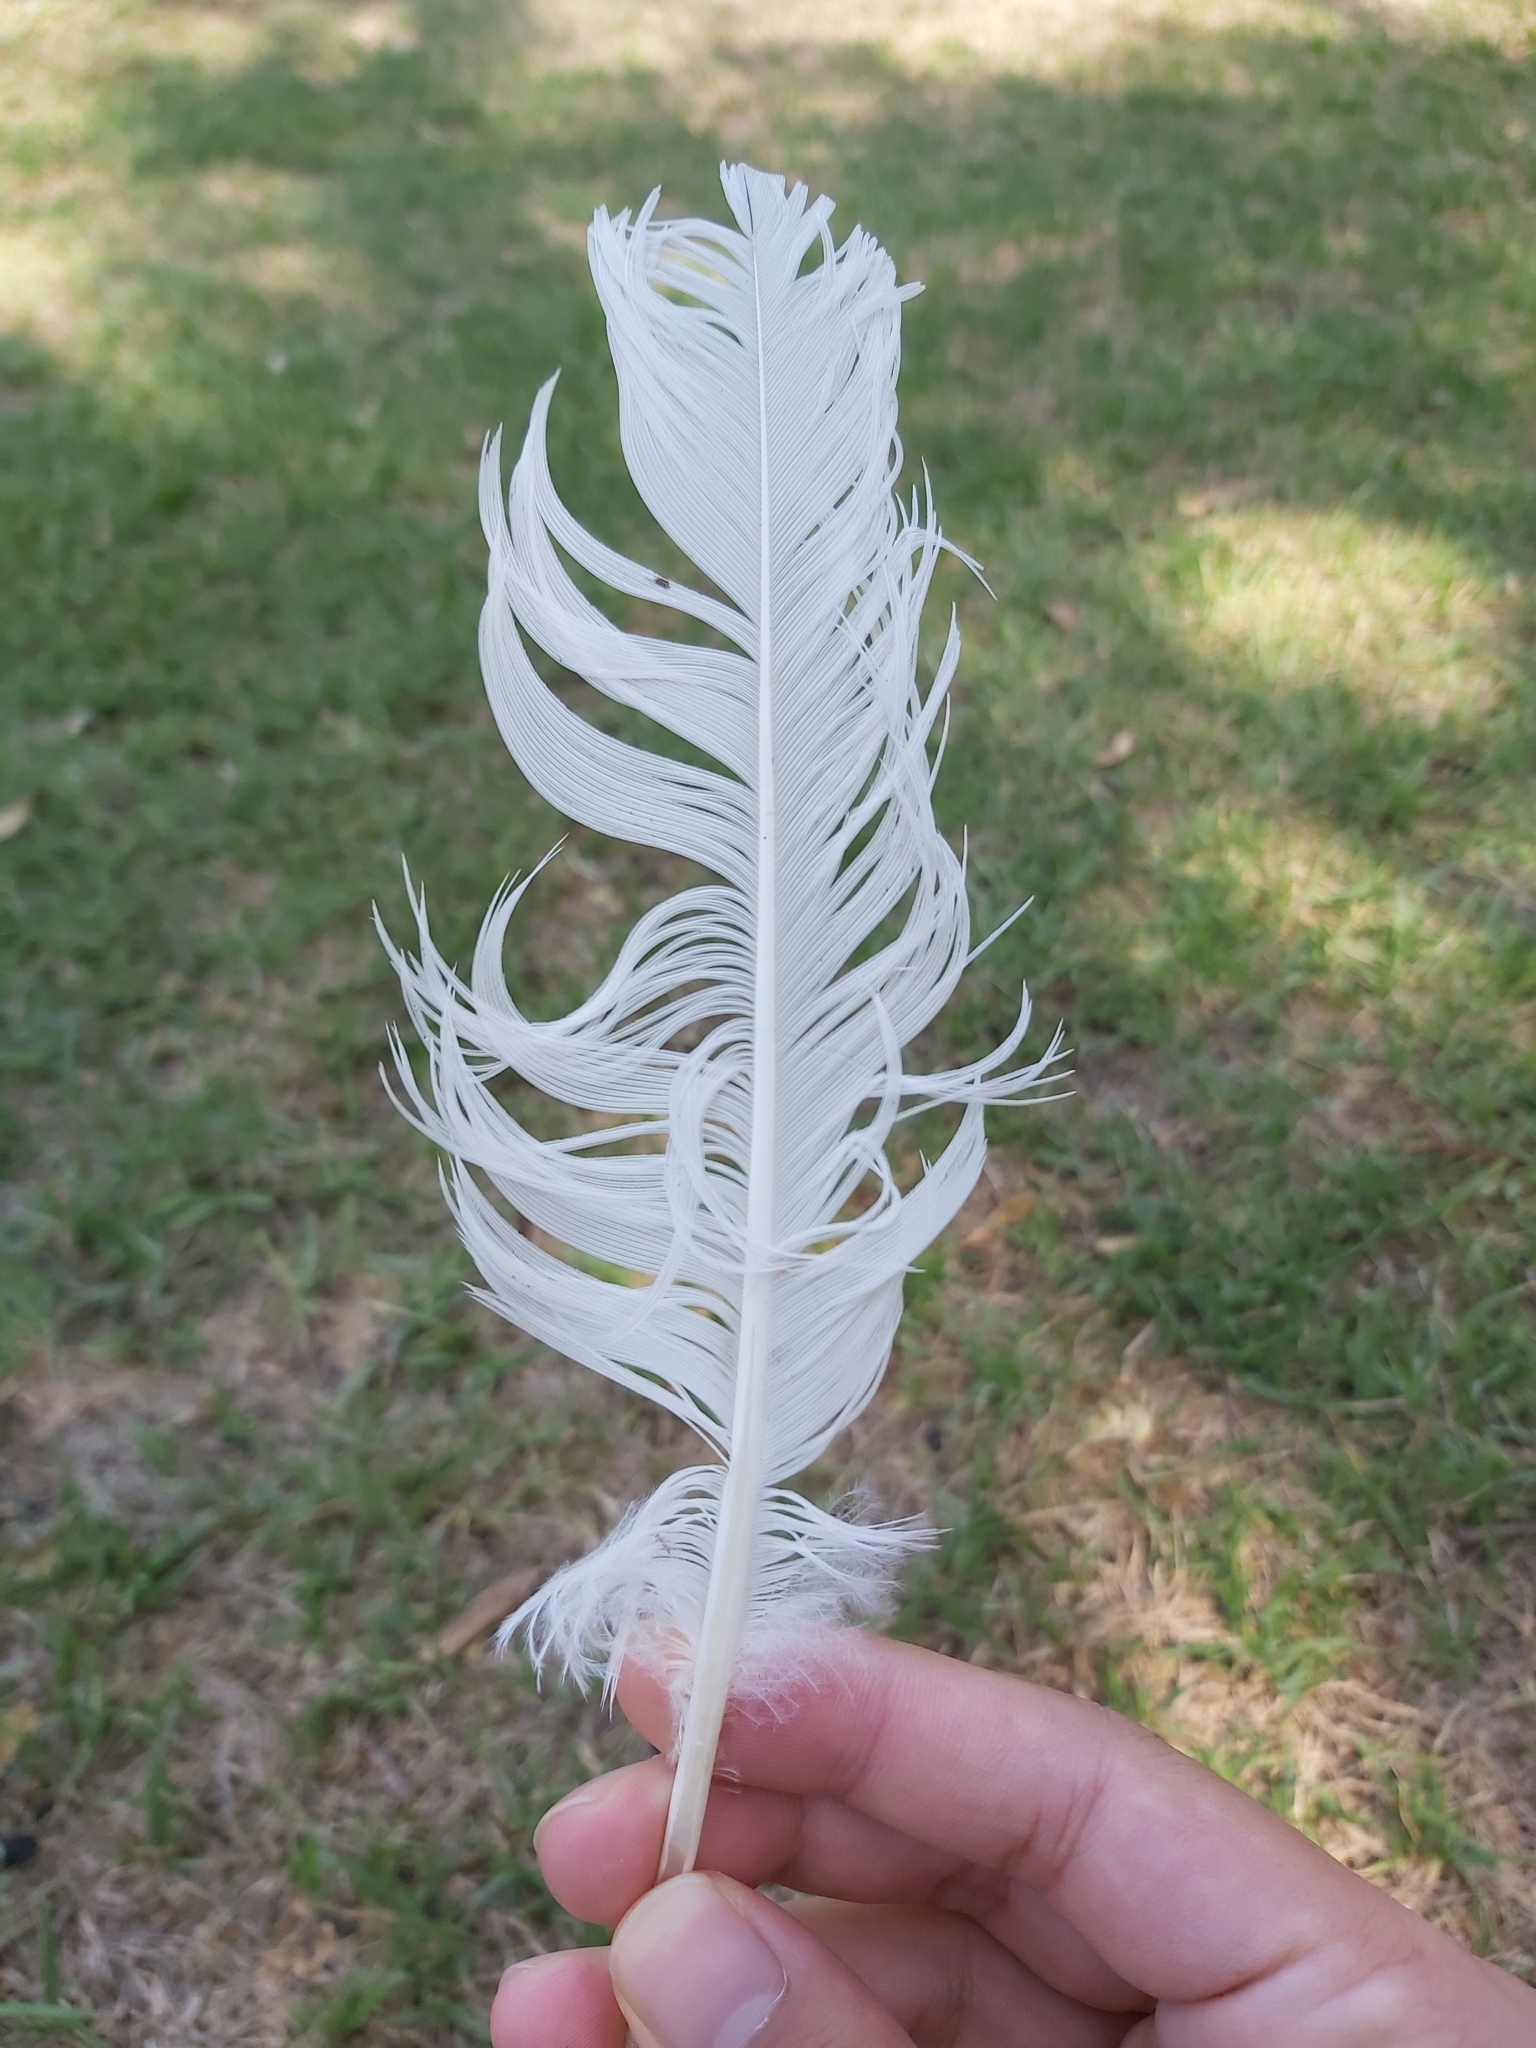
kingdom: Animalia
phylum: Chordata
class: Aves
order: Pelecaniformes
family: Threskiornithidae
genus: Threskiornis
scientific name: Threskiornis molucca
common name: Australian white ibis
